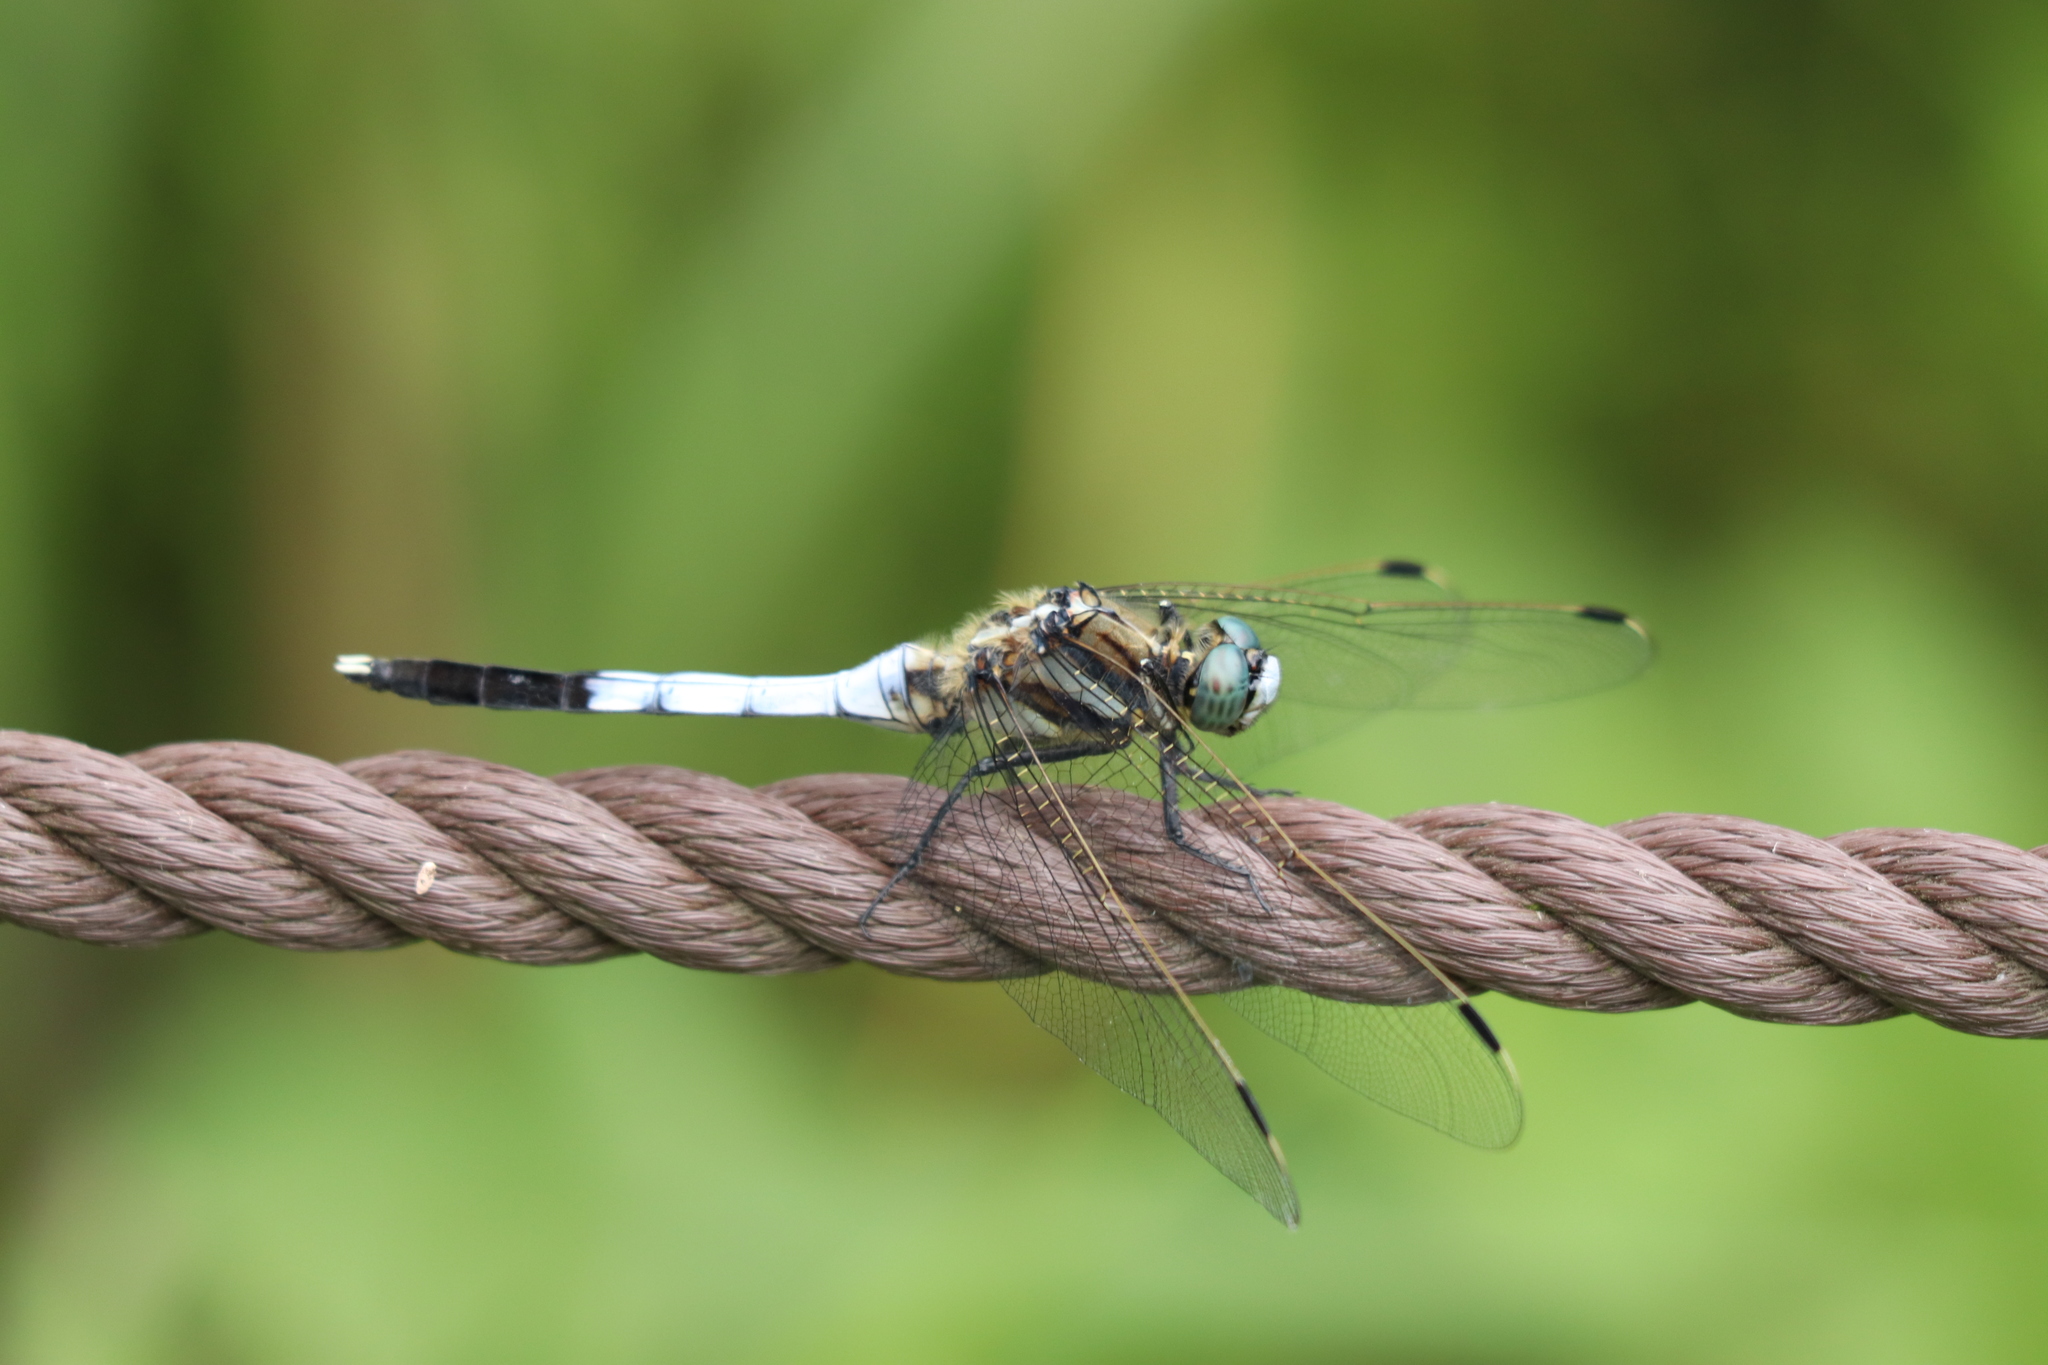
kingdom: Animalia
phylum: Arthropoda
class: Insecta
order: Odonata
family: Libellulidae
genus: Orthetrum
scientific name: Orthetrum albistylum
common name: White-tailed skimmer
